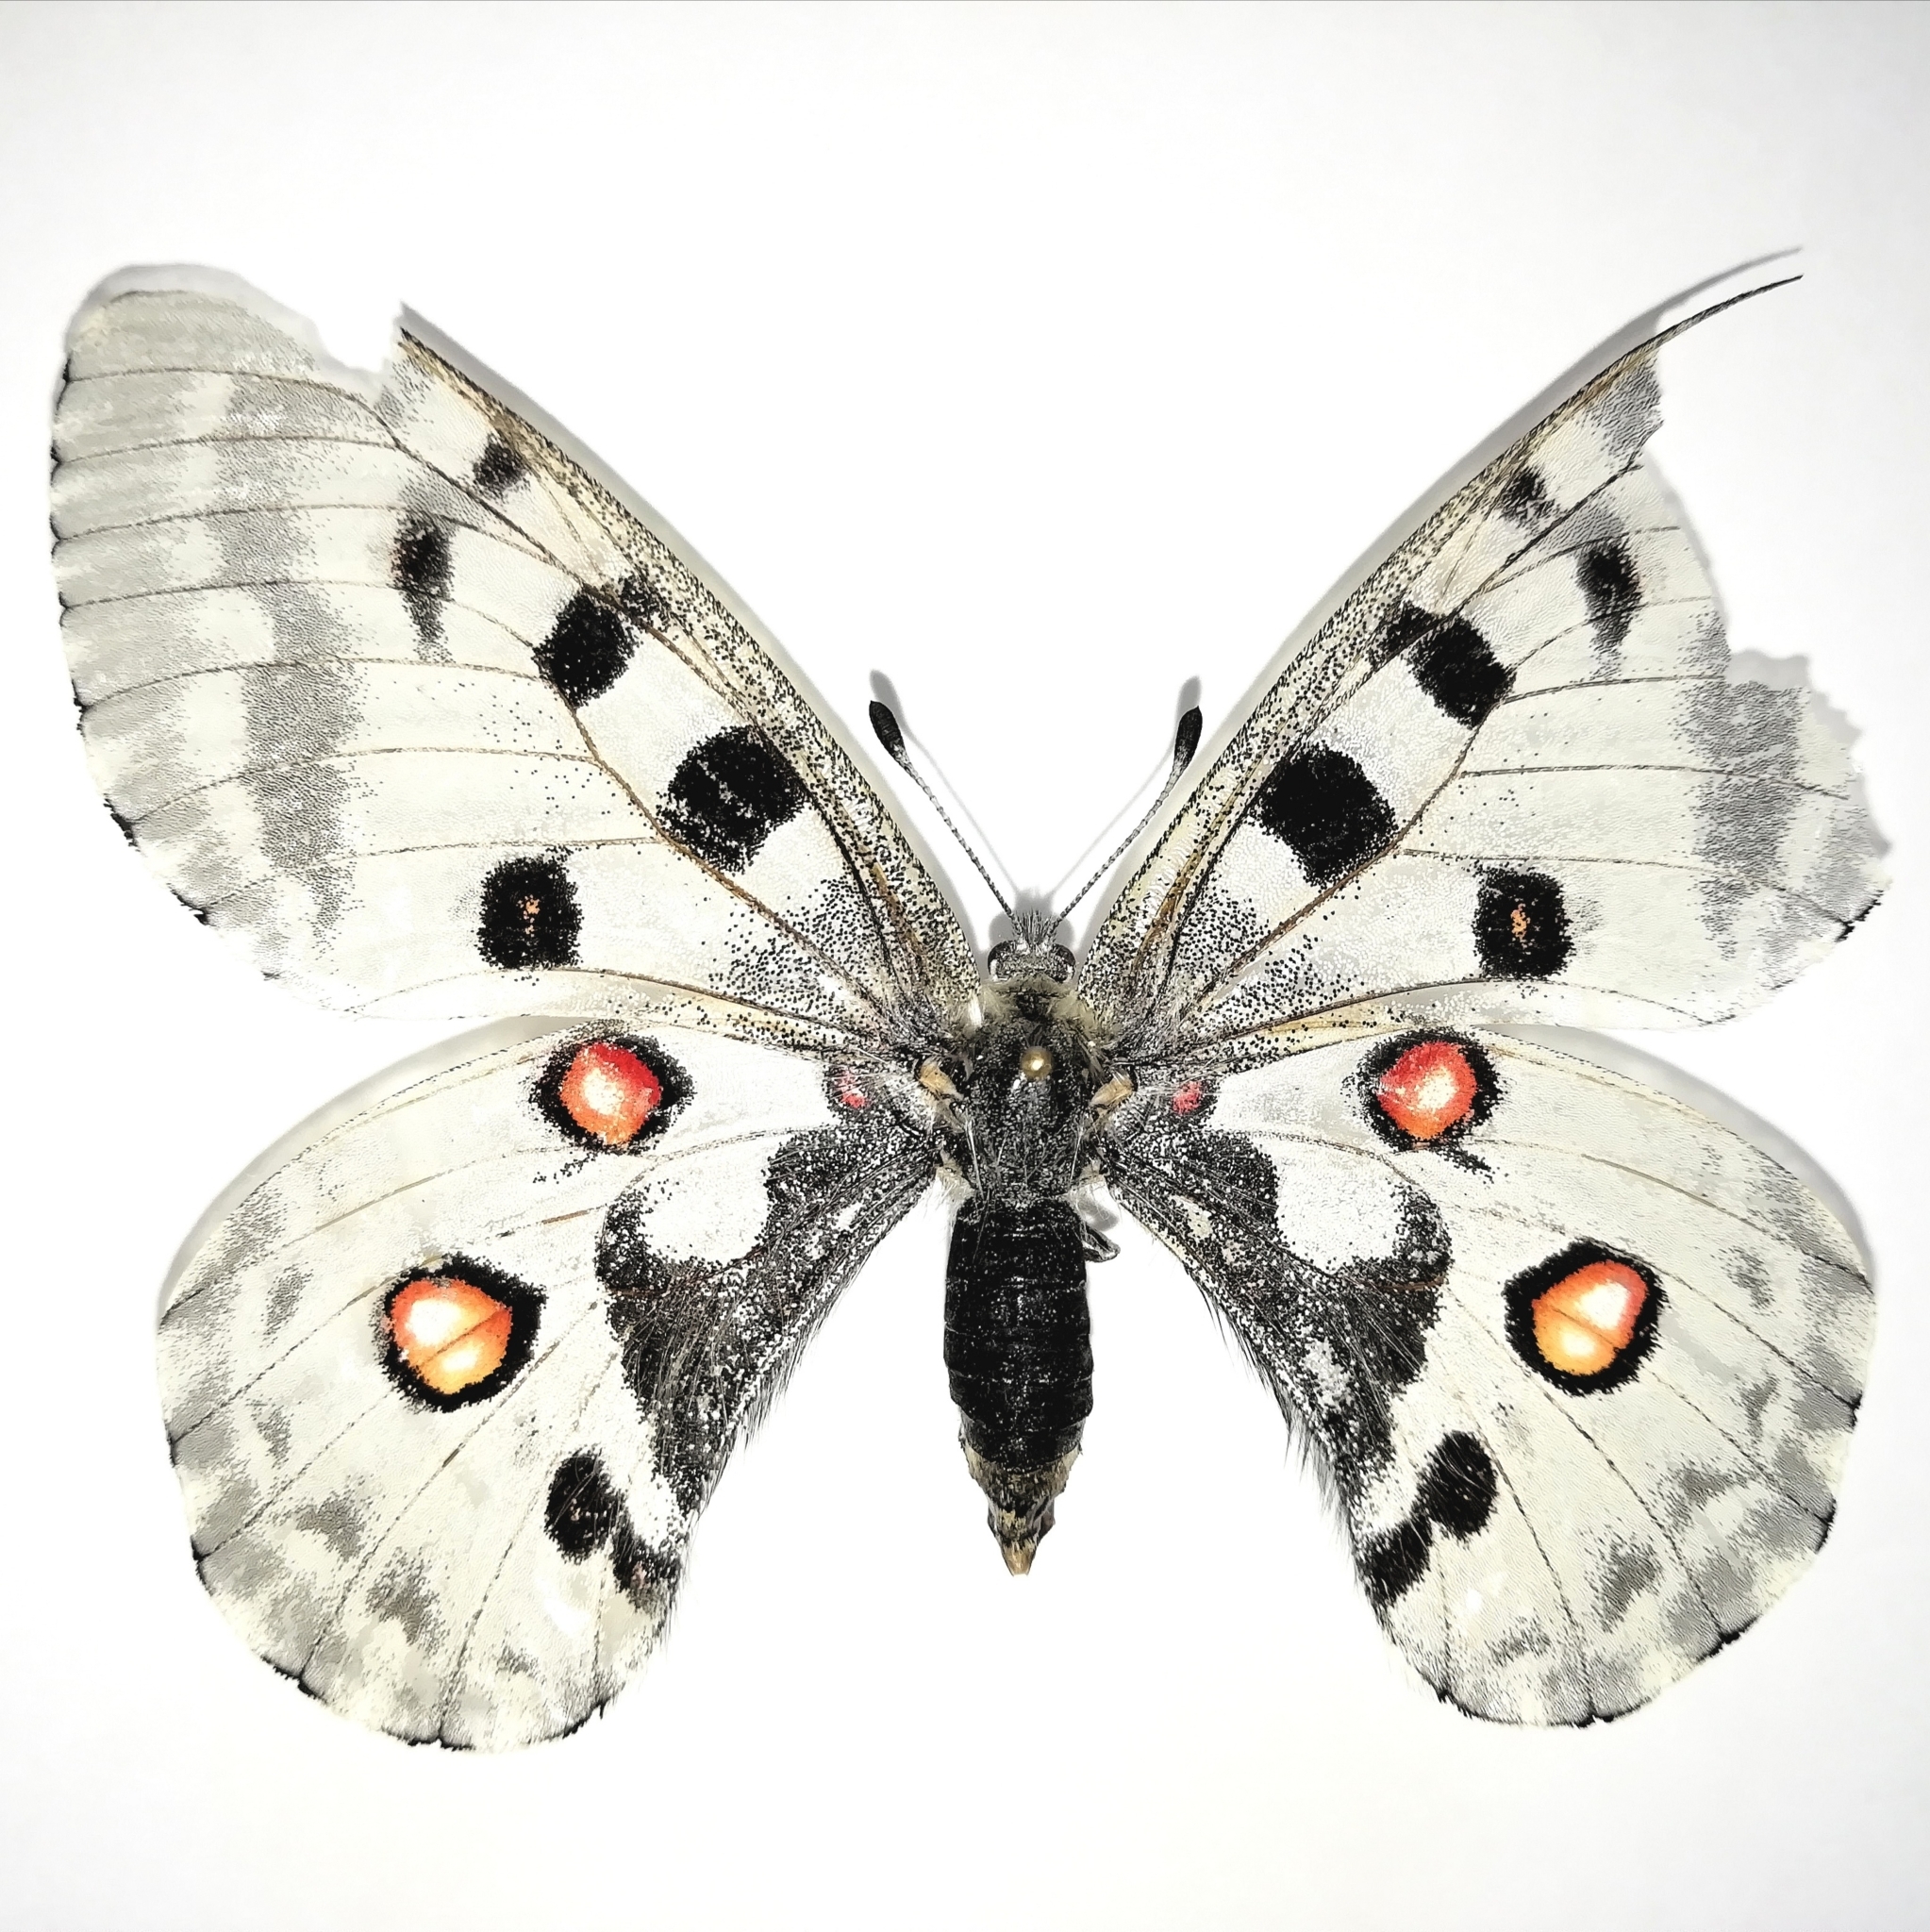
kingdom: Animalia
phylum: Arthropoda
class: Insecta
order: Lepidoptera
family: Papilionidae
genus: Parnassius
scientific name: Parnassius nomion
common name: Nomion apollo
